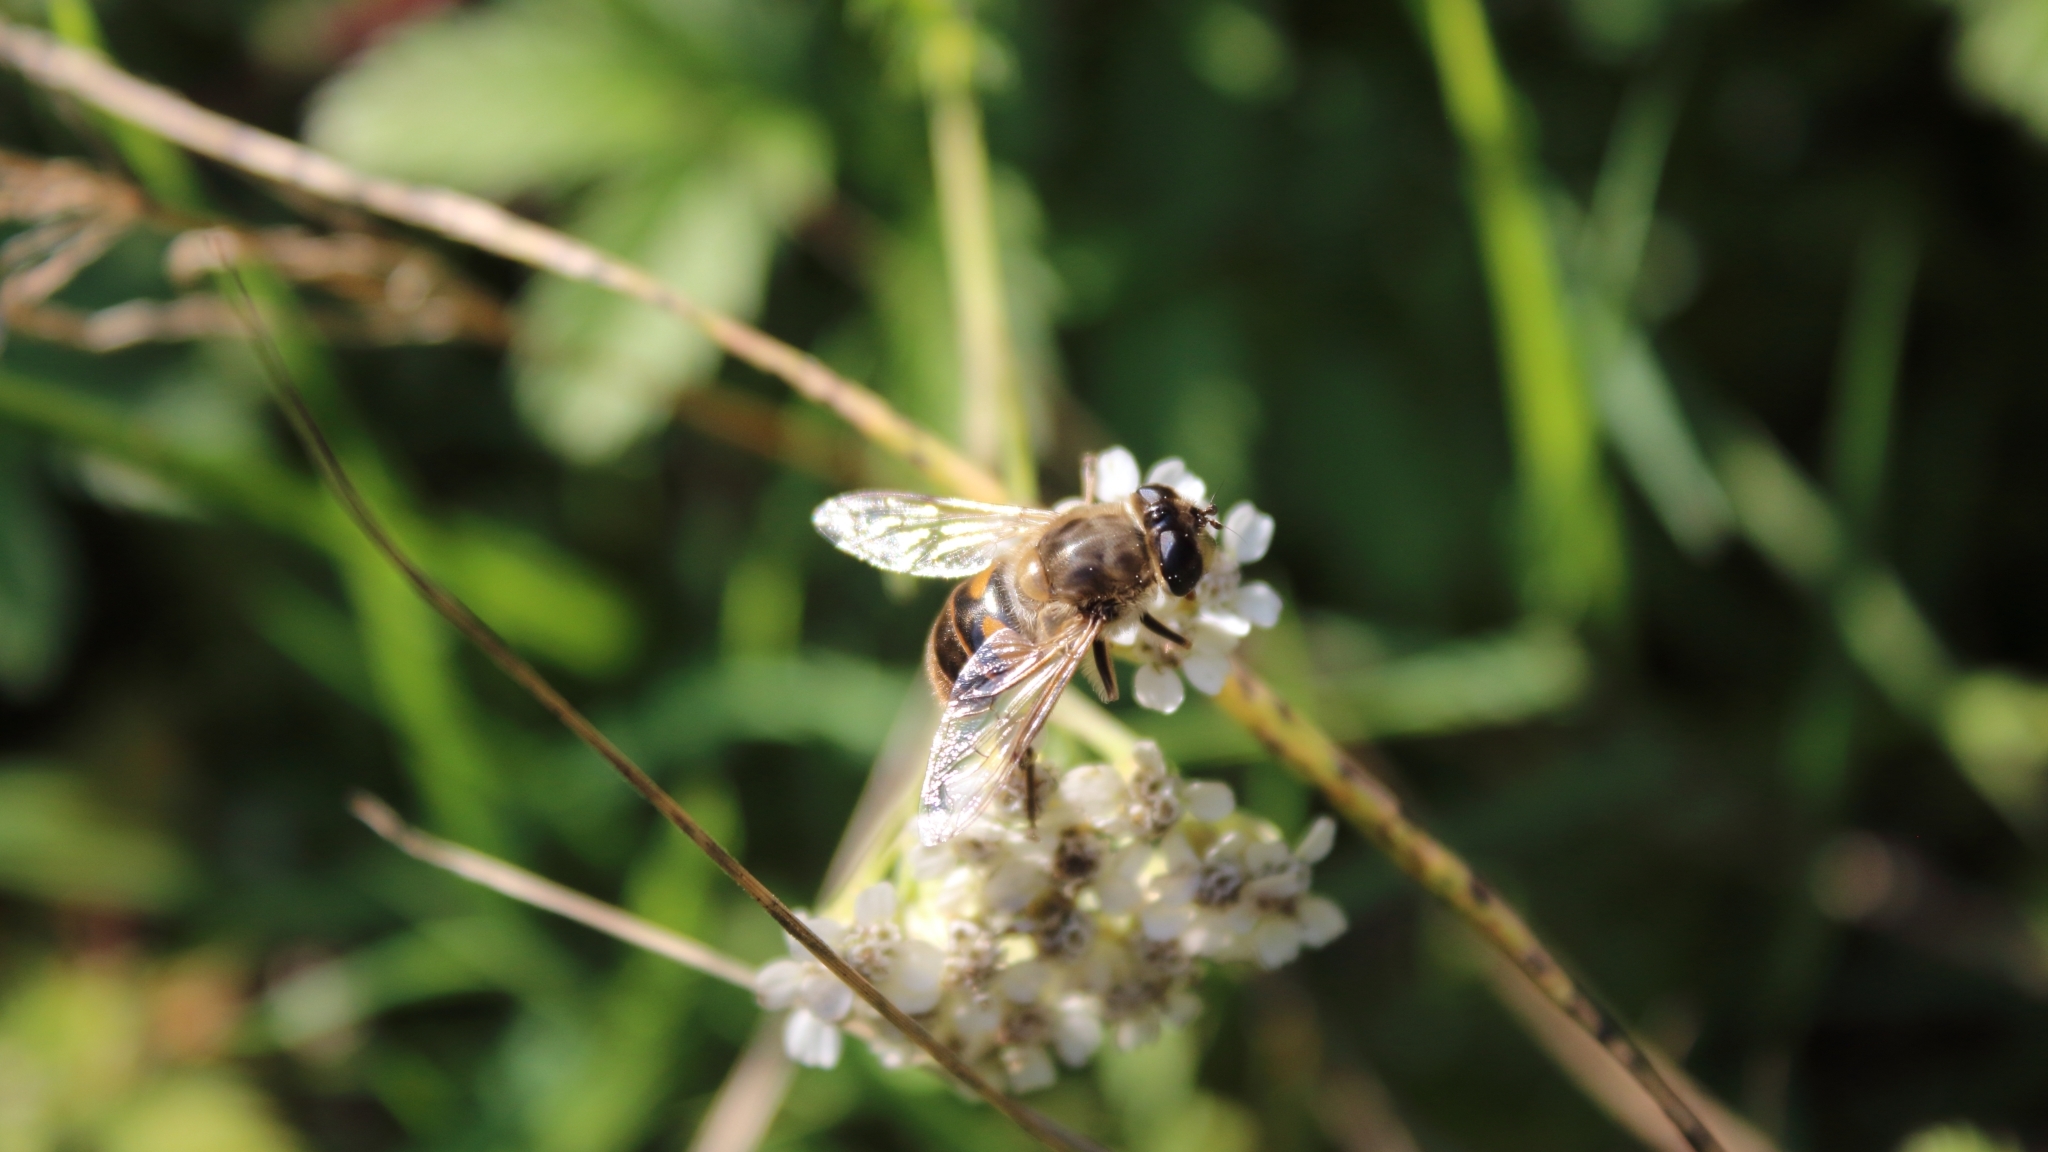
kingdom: Animalia
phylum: Arthropoda
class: Insecta
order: Diptera
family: Syrphidae
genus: Eristalis
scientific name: Eristalis tenax
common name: Drone fly
